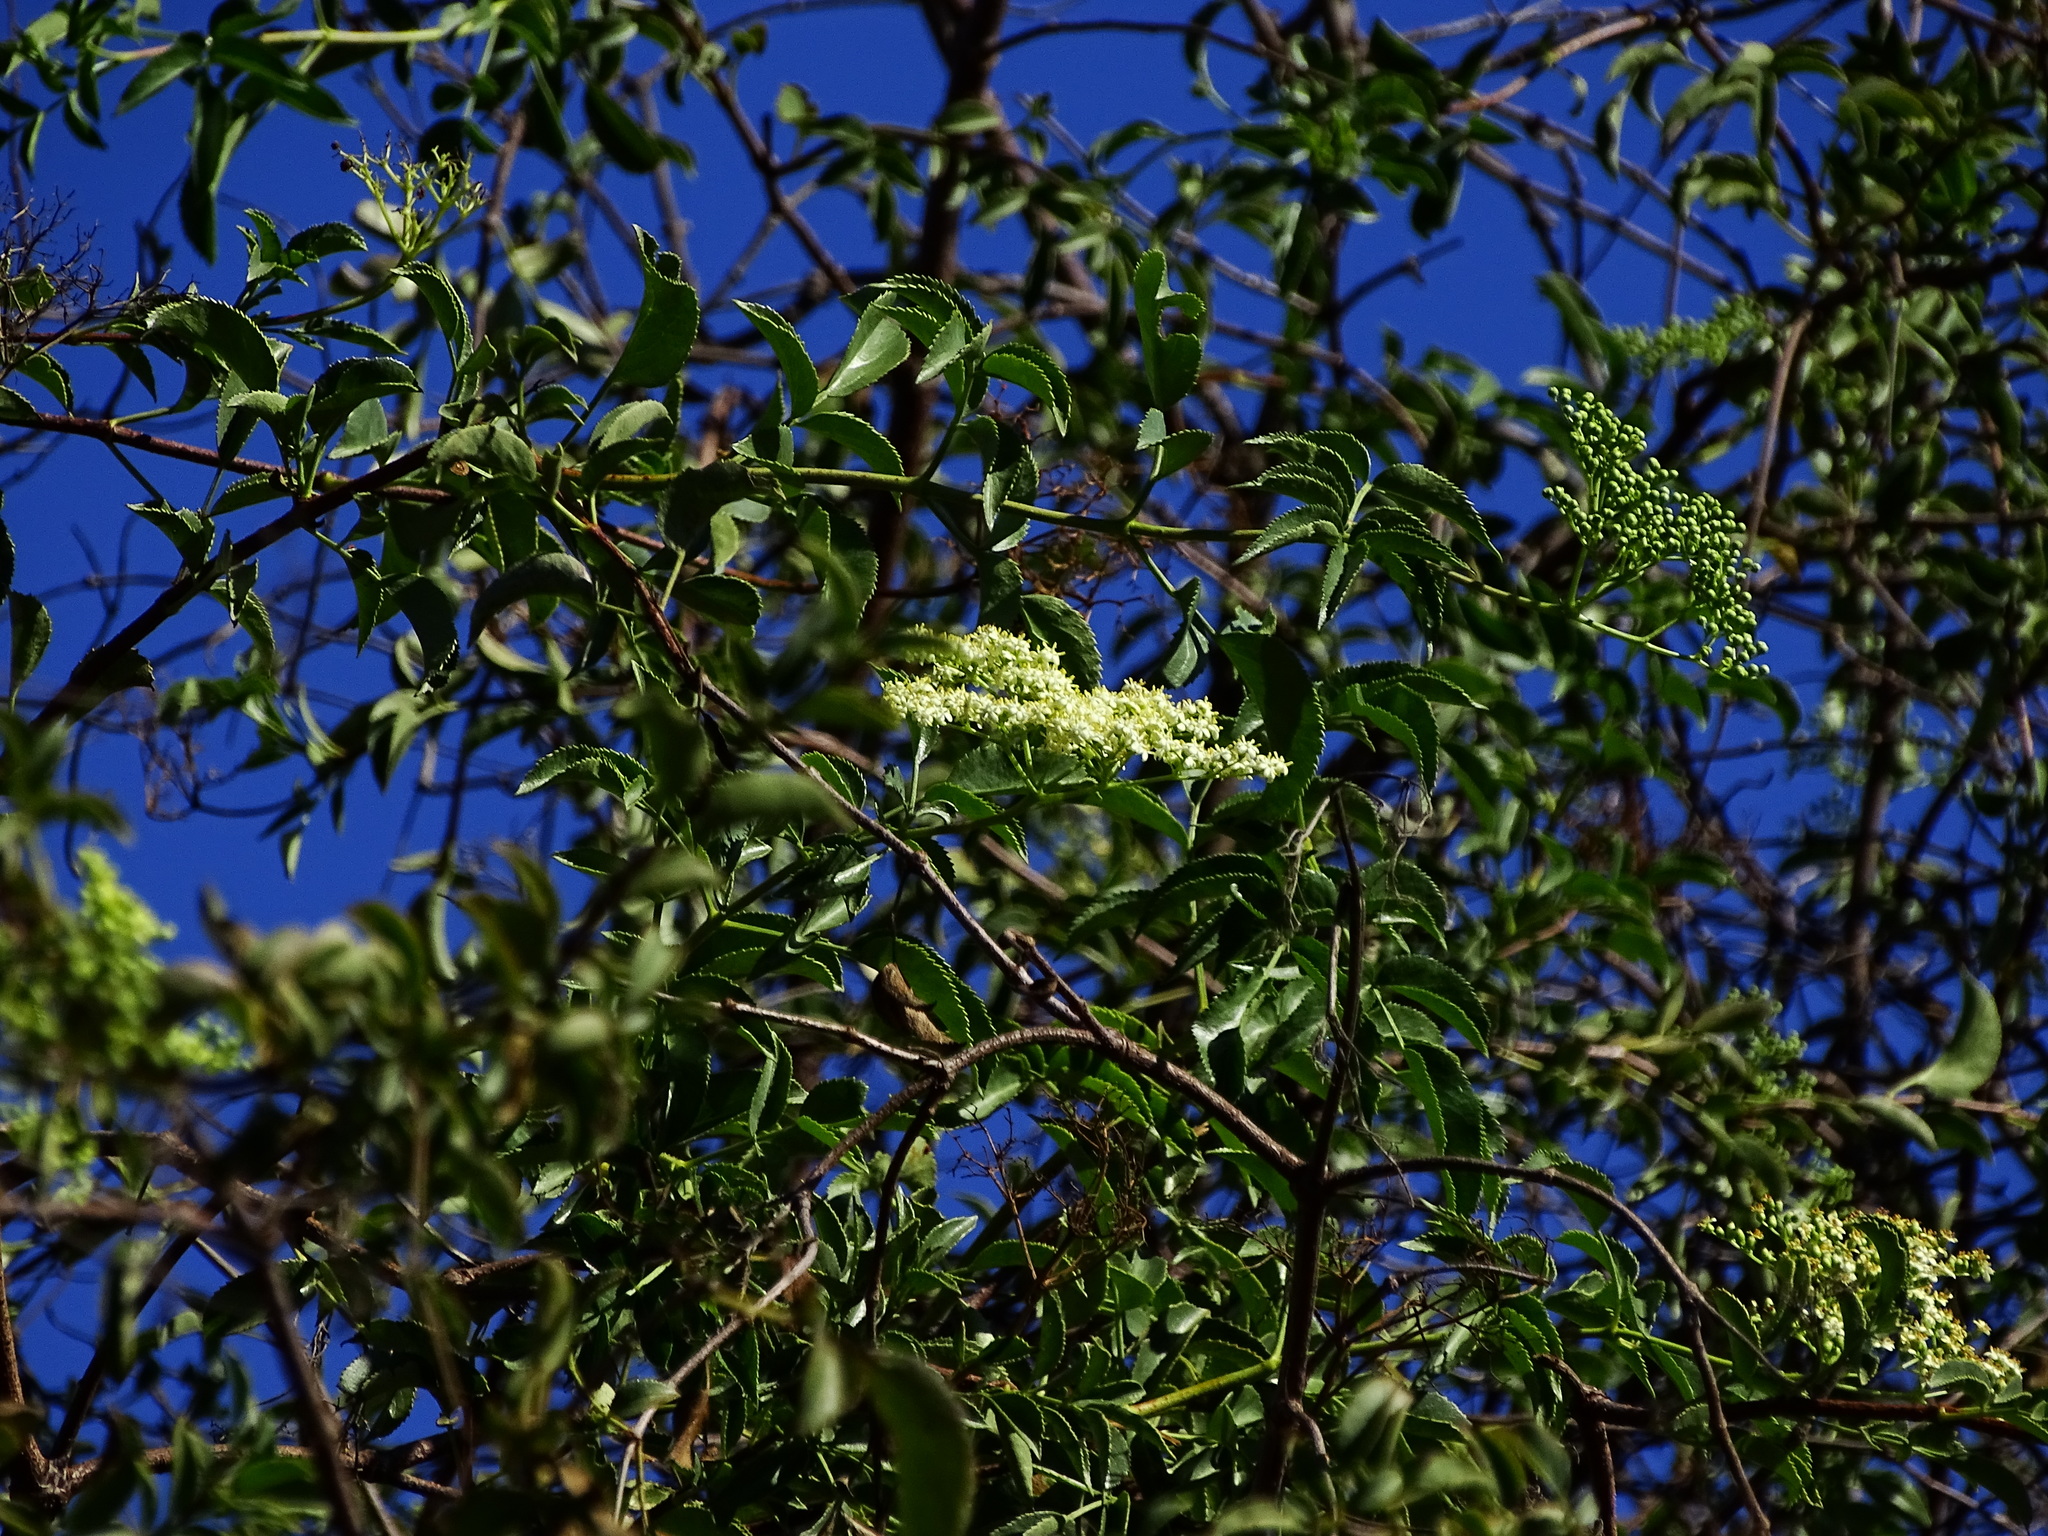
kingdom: Plantae
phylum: Tracheophyta
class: Magnoliopsida
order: Dipsacales
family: Viburnaceae
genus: Sambucus
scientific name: Sambucus cerulea
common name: Blue elder
